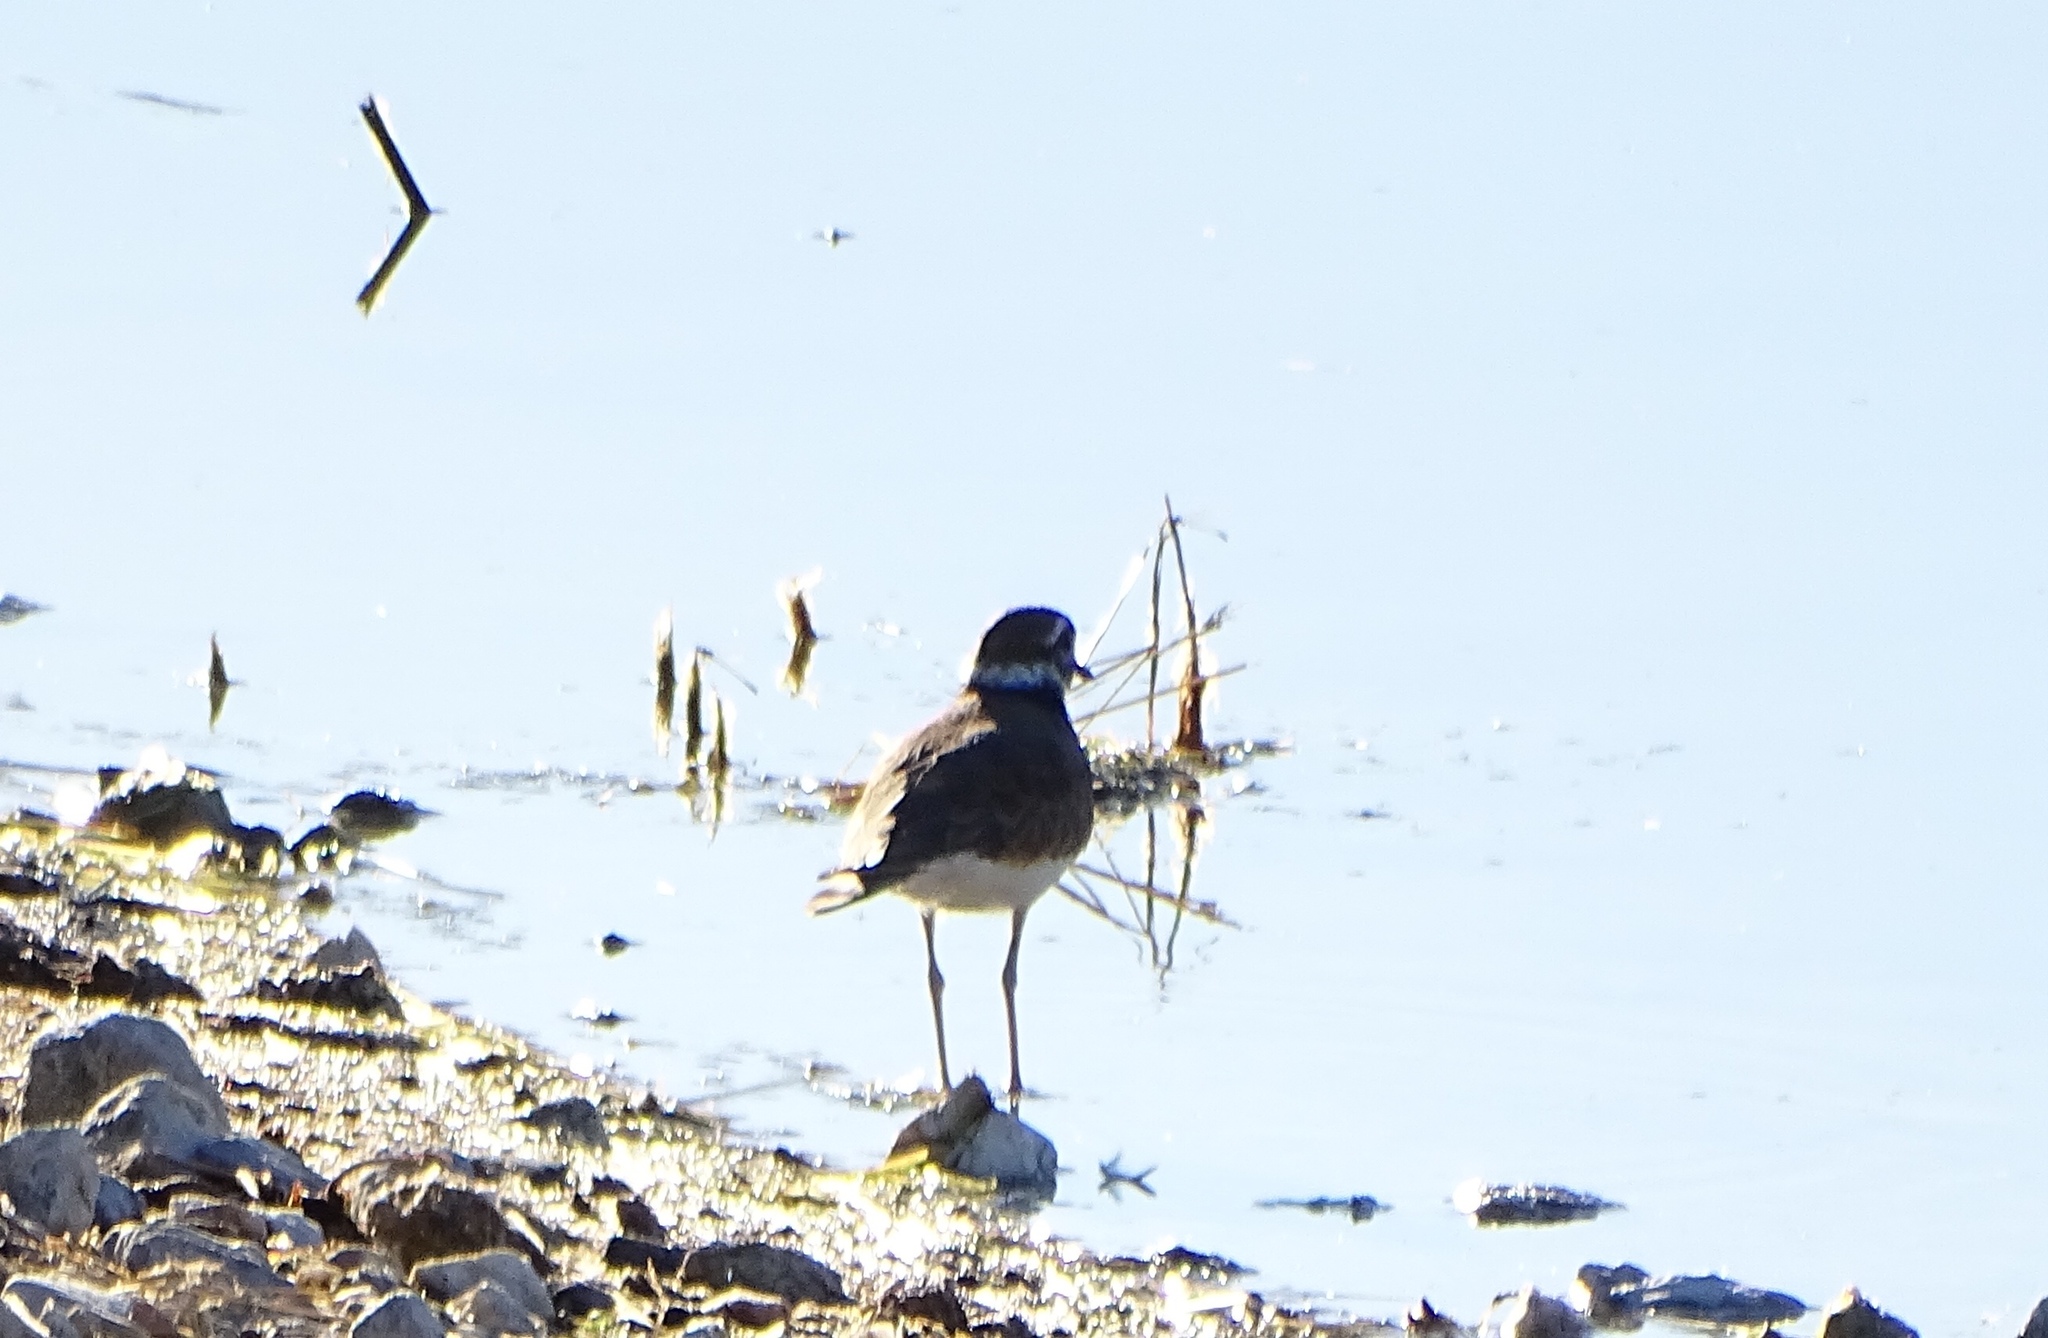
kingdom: Animalia
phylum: Chordata
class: Aves
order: Charadriiformes
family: Charadriidae
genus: Charadrius
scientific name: Charadrius vociferus
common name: Killdeer
